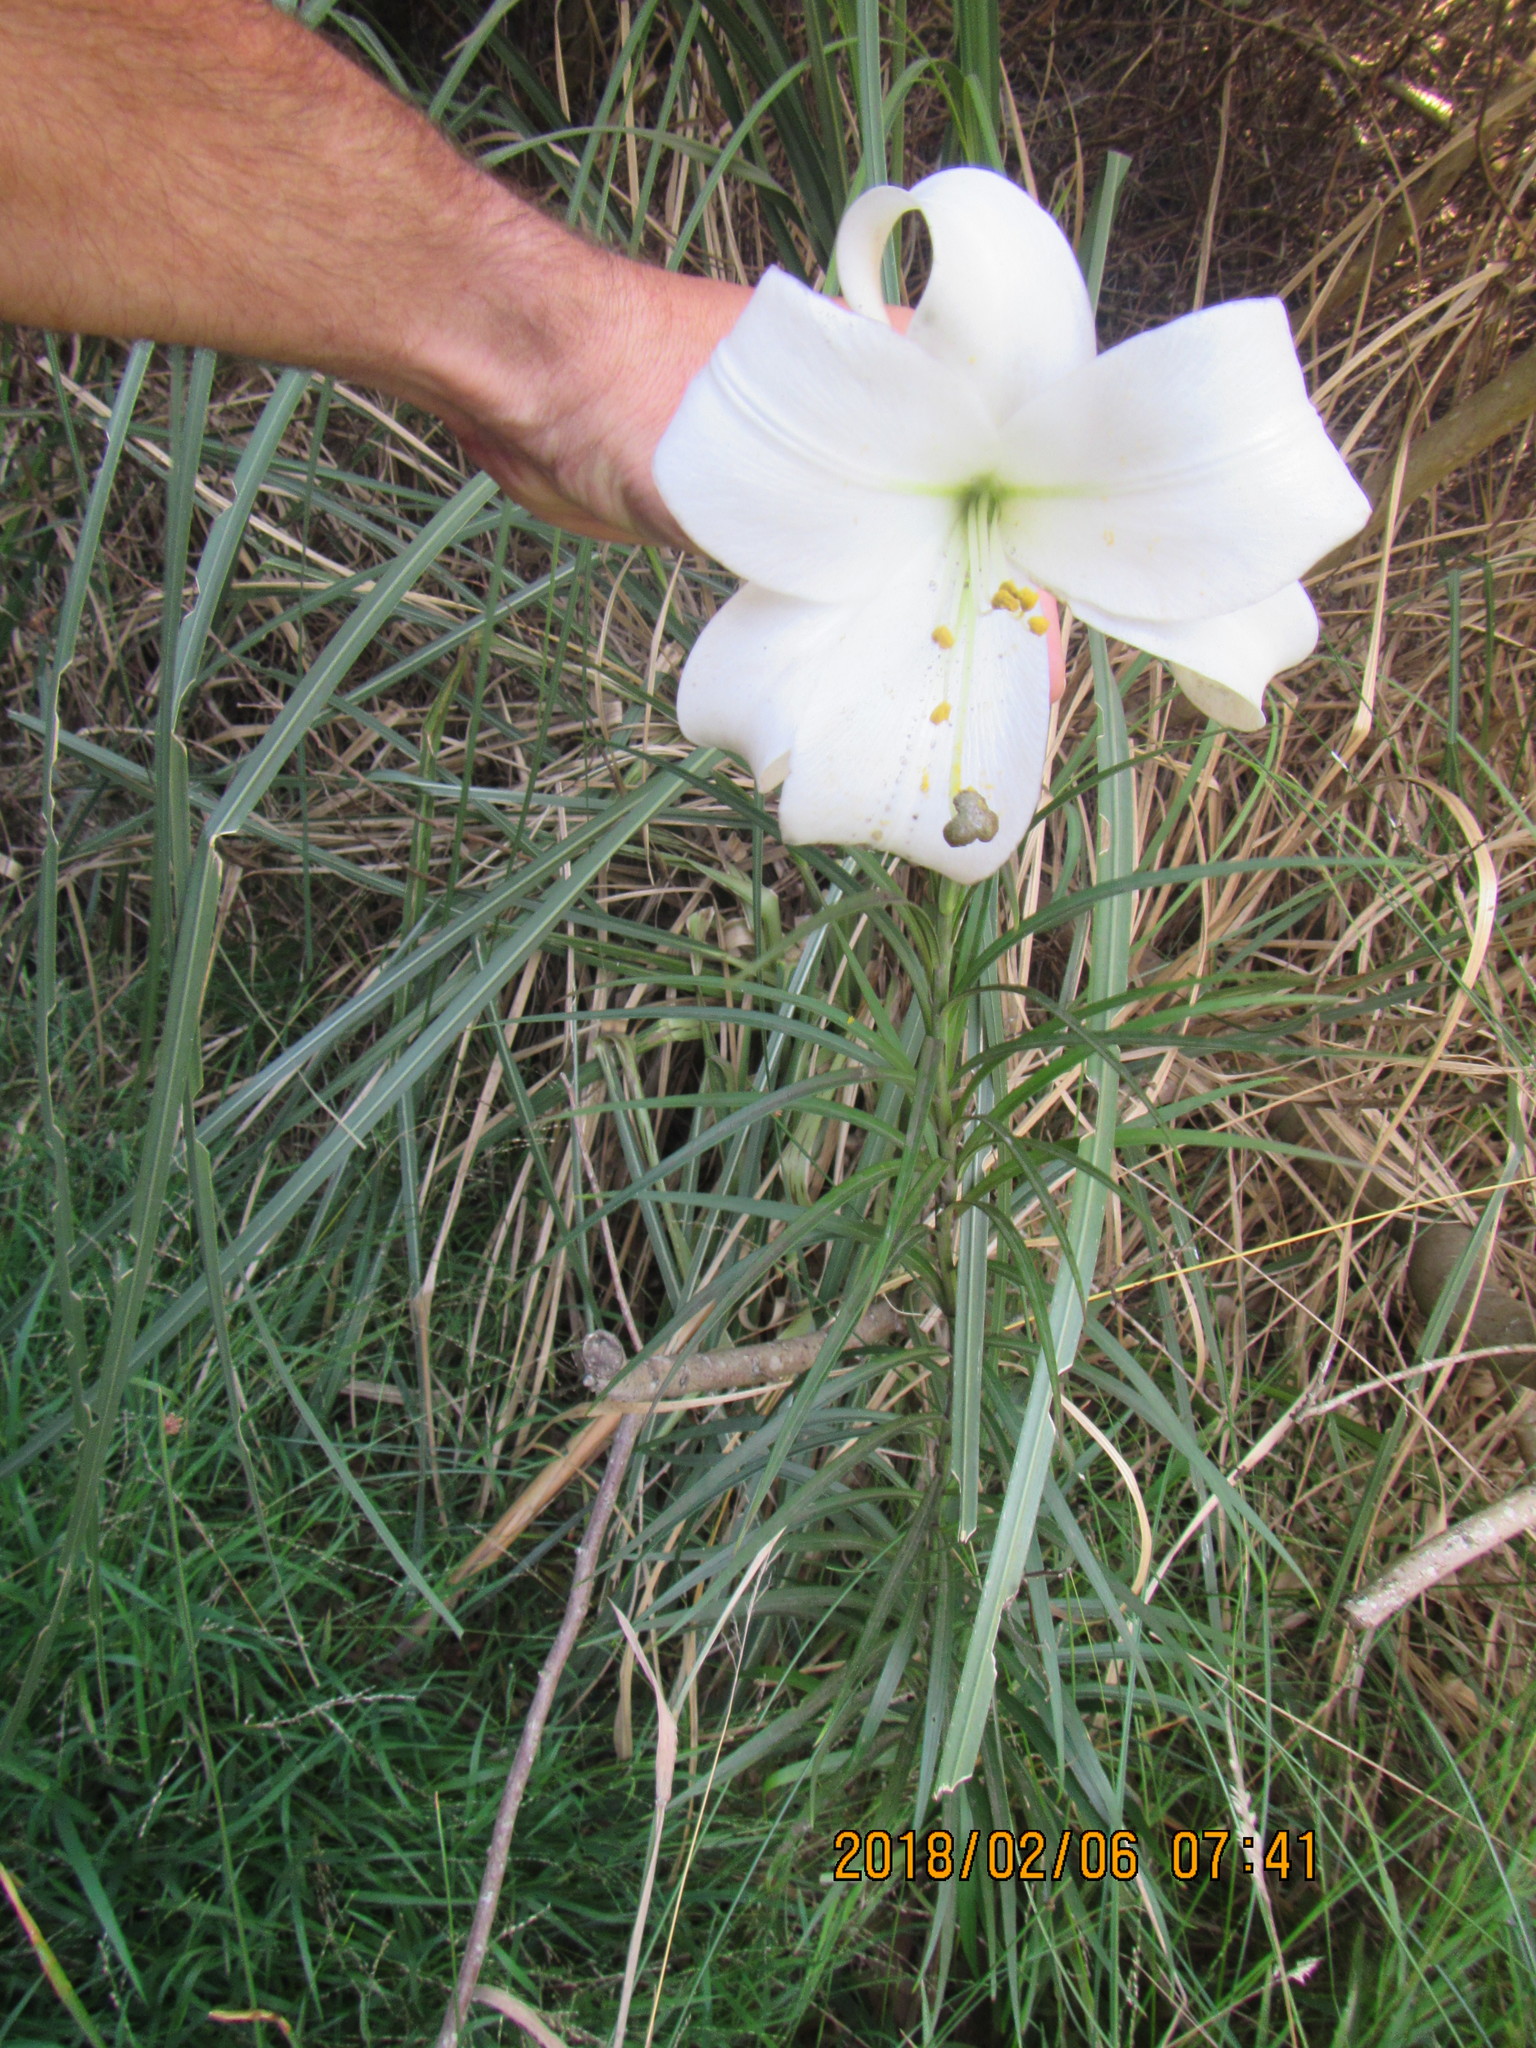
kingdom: Plantae
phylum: Tracheophyta
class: Liliopsida
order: Liliales
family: Liliaceae
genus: Lilium
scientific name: Lilium formosanum
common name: Formosa lily
